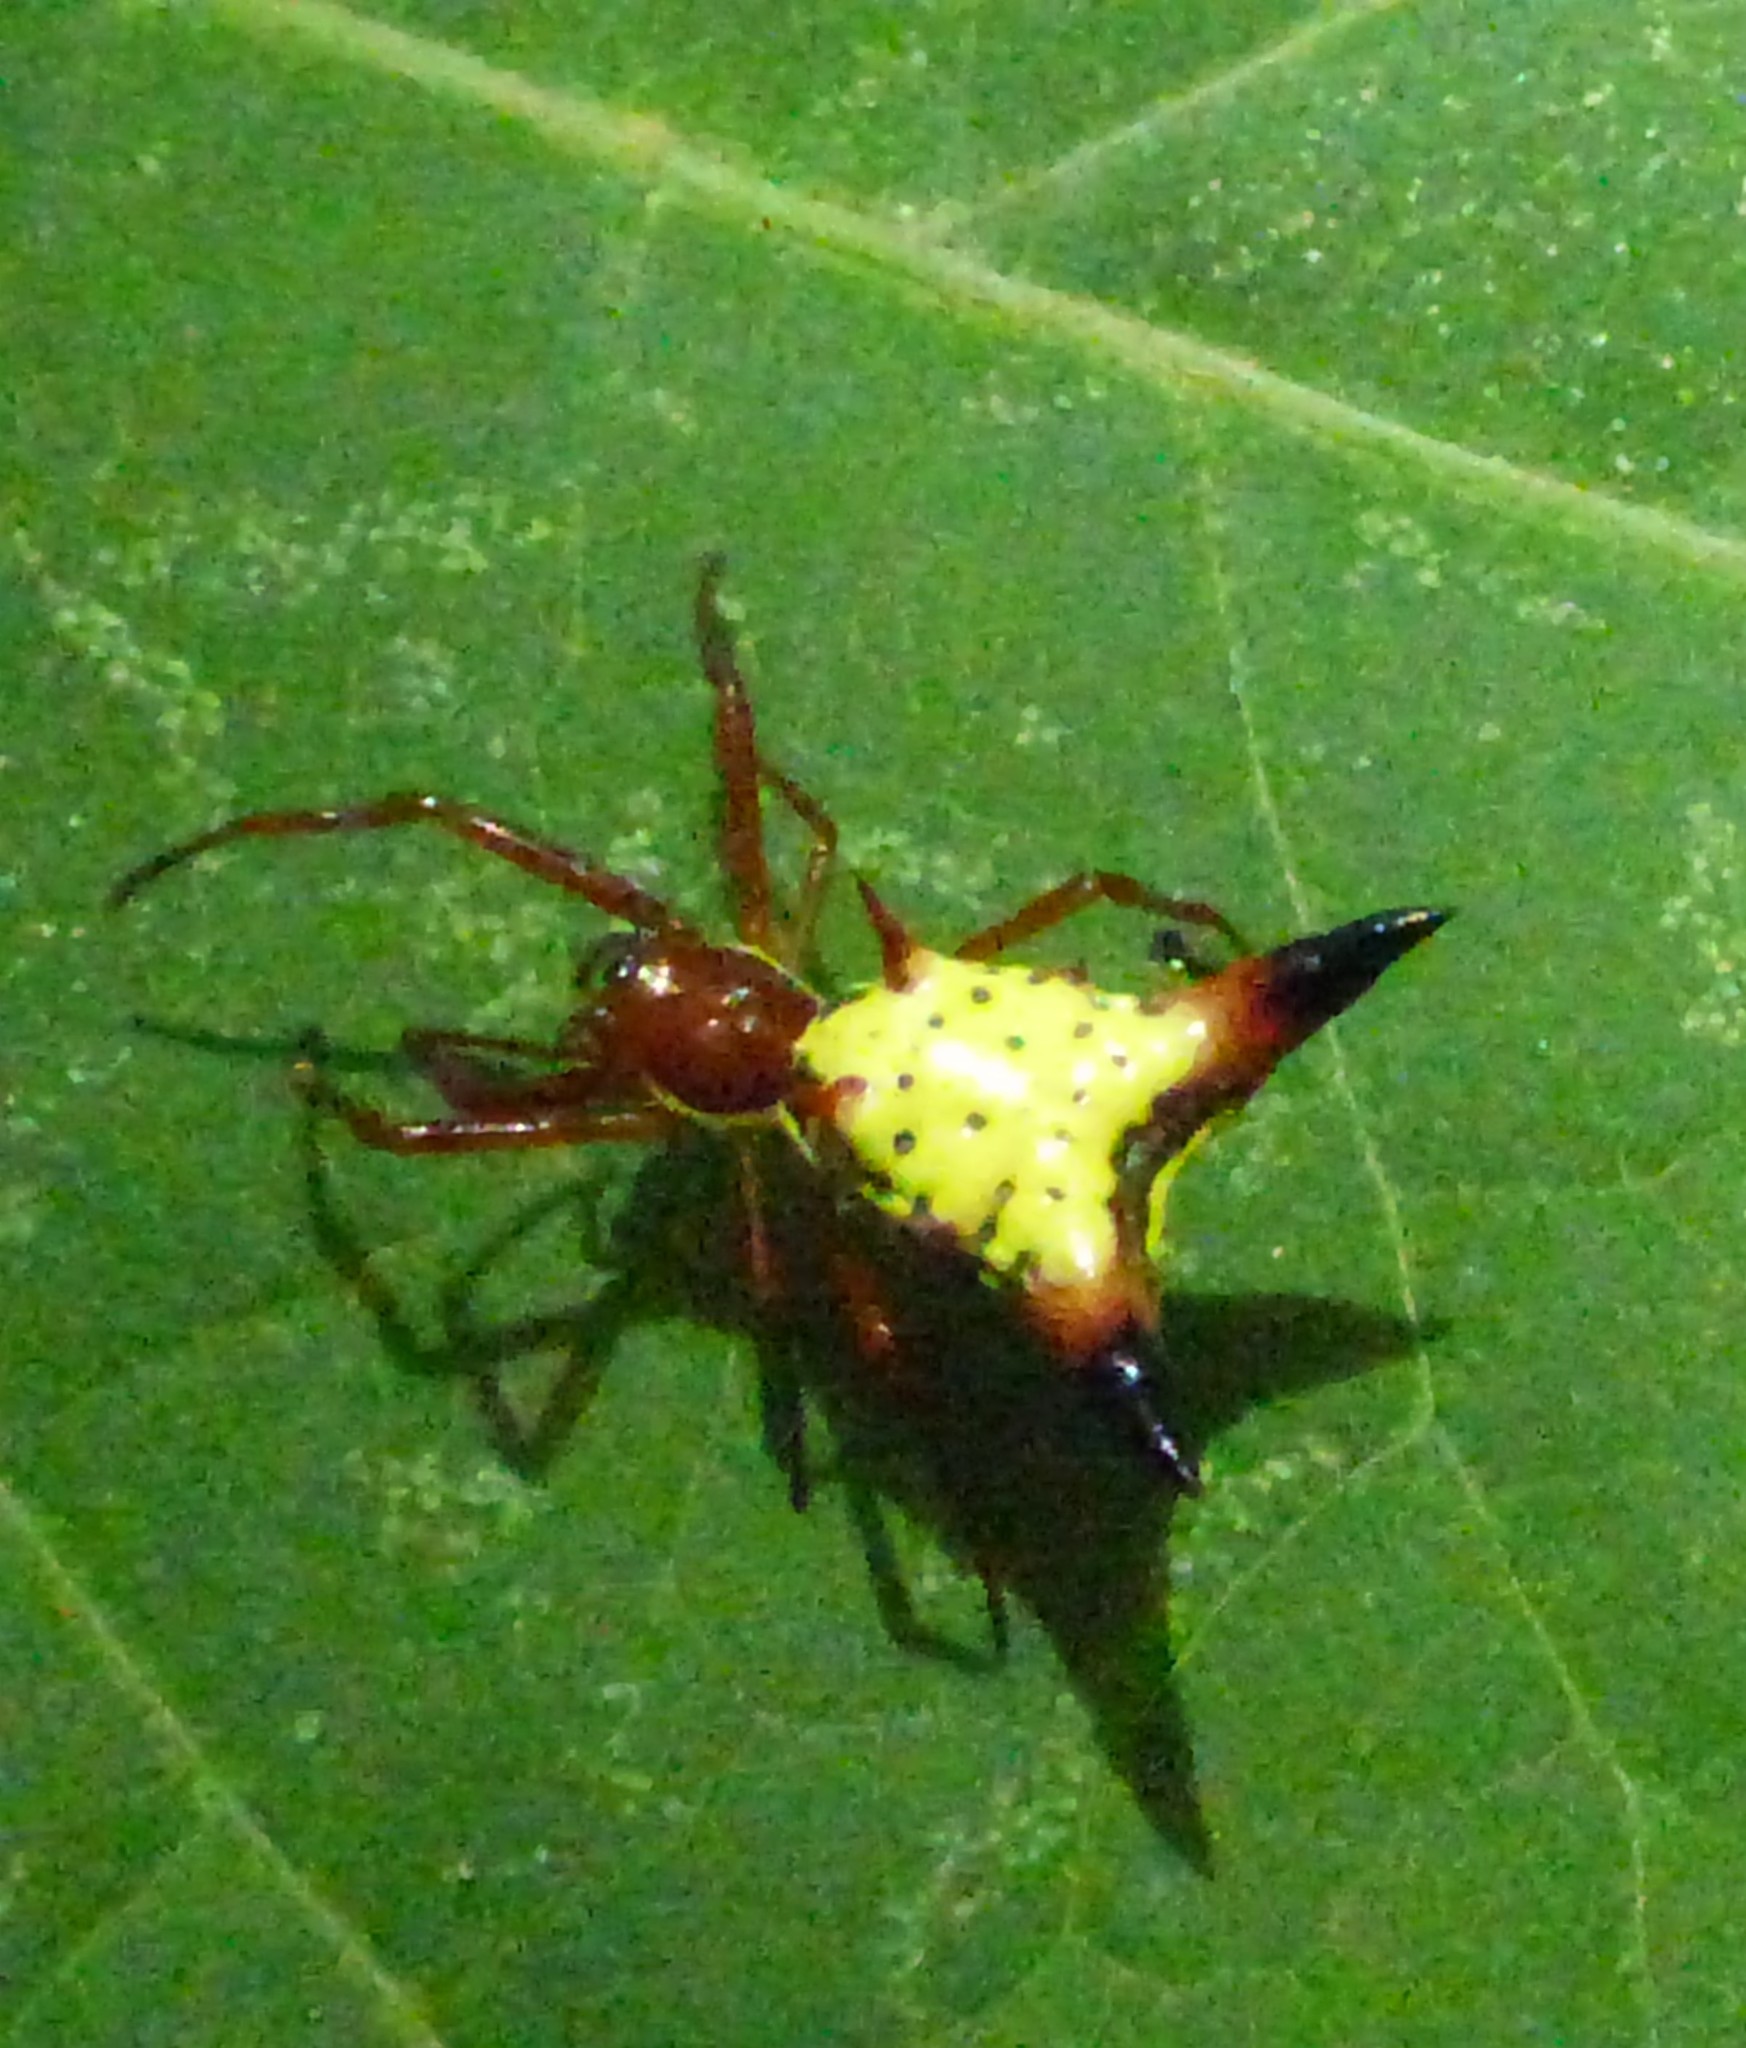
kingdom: Animalia
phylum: Arthropoda
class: Arachnida
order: Araneae
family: Araneidae
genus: Micrathena
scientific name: Micrathena sagittata
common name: Orb weavers
